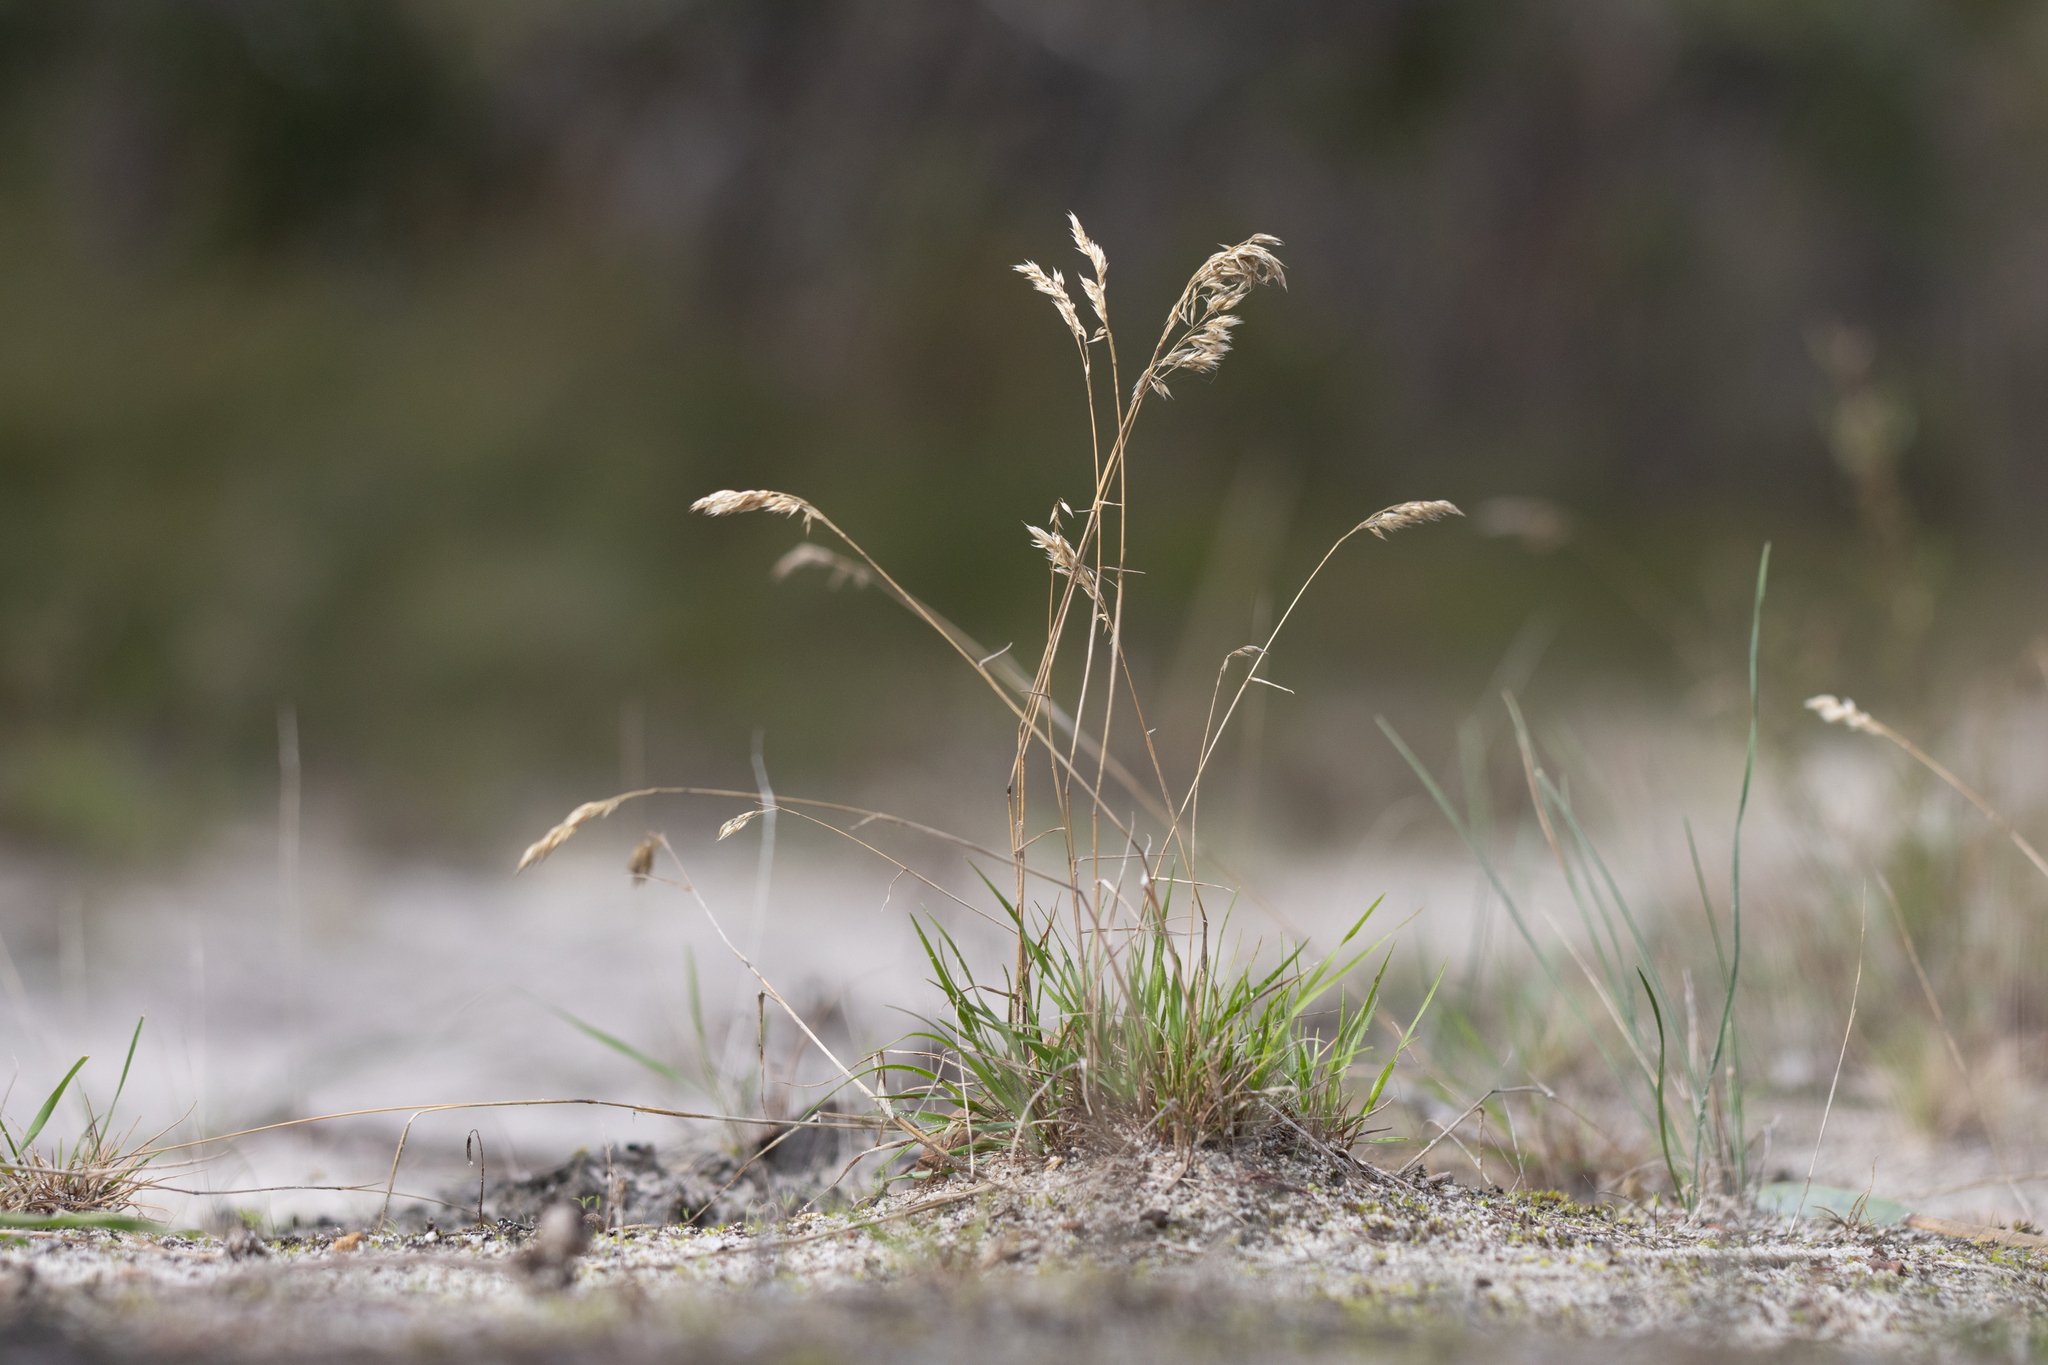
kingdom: Plantae
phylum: Tracheophyta
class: Liliopsida
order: Poales
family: Poaceae
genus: Pentameris
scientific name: Pentameris pallida
